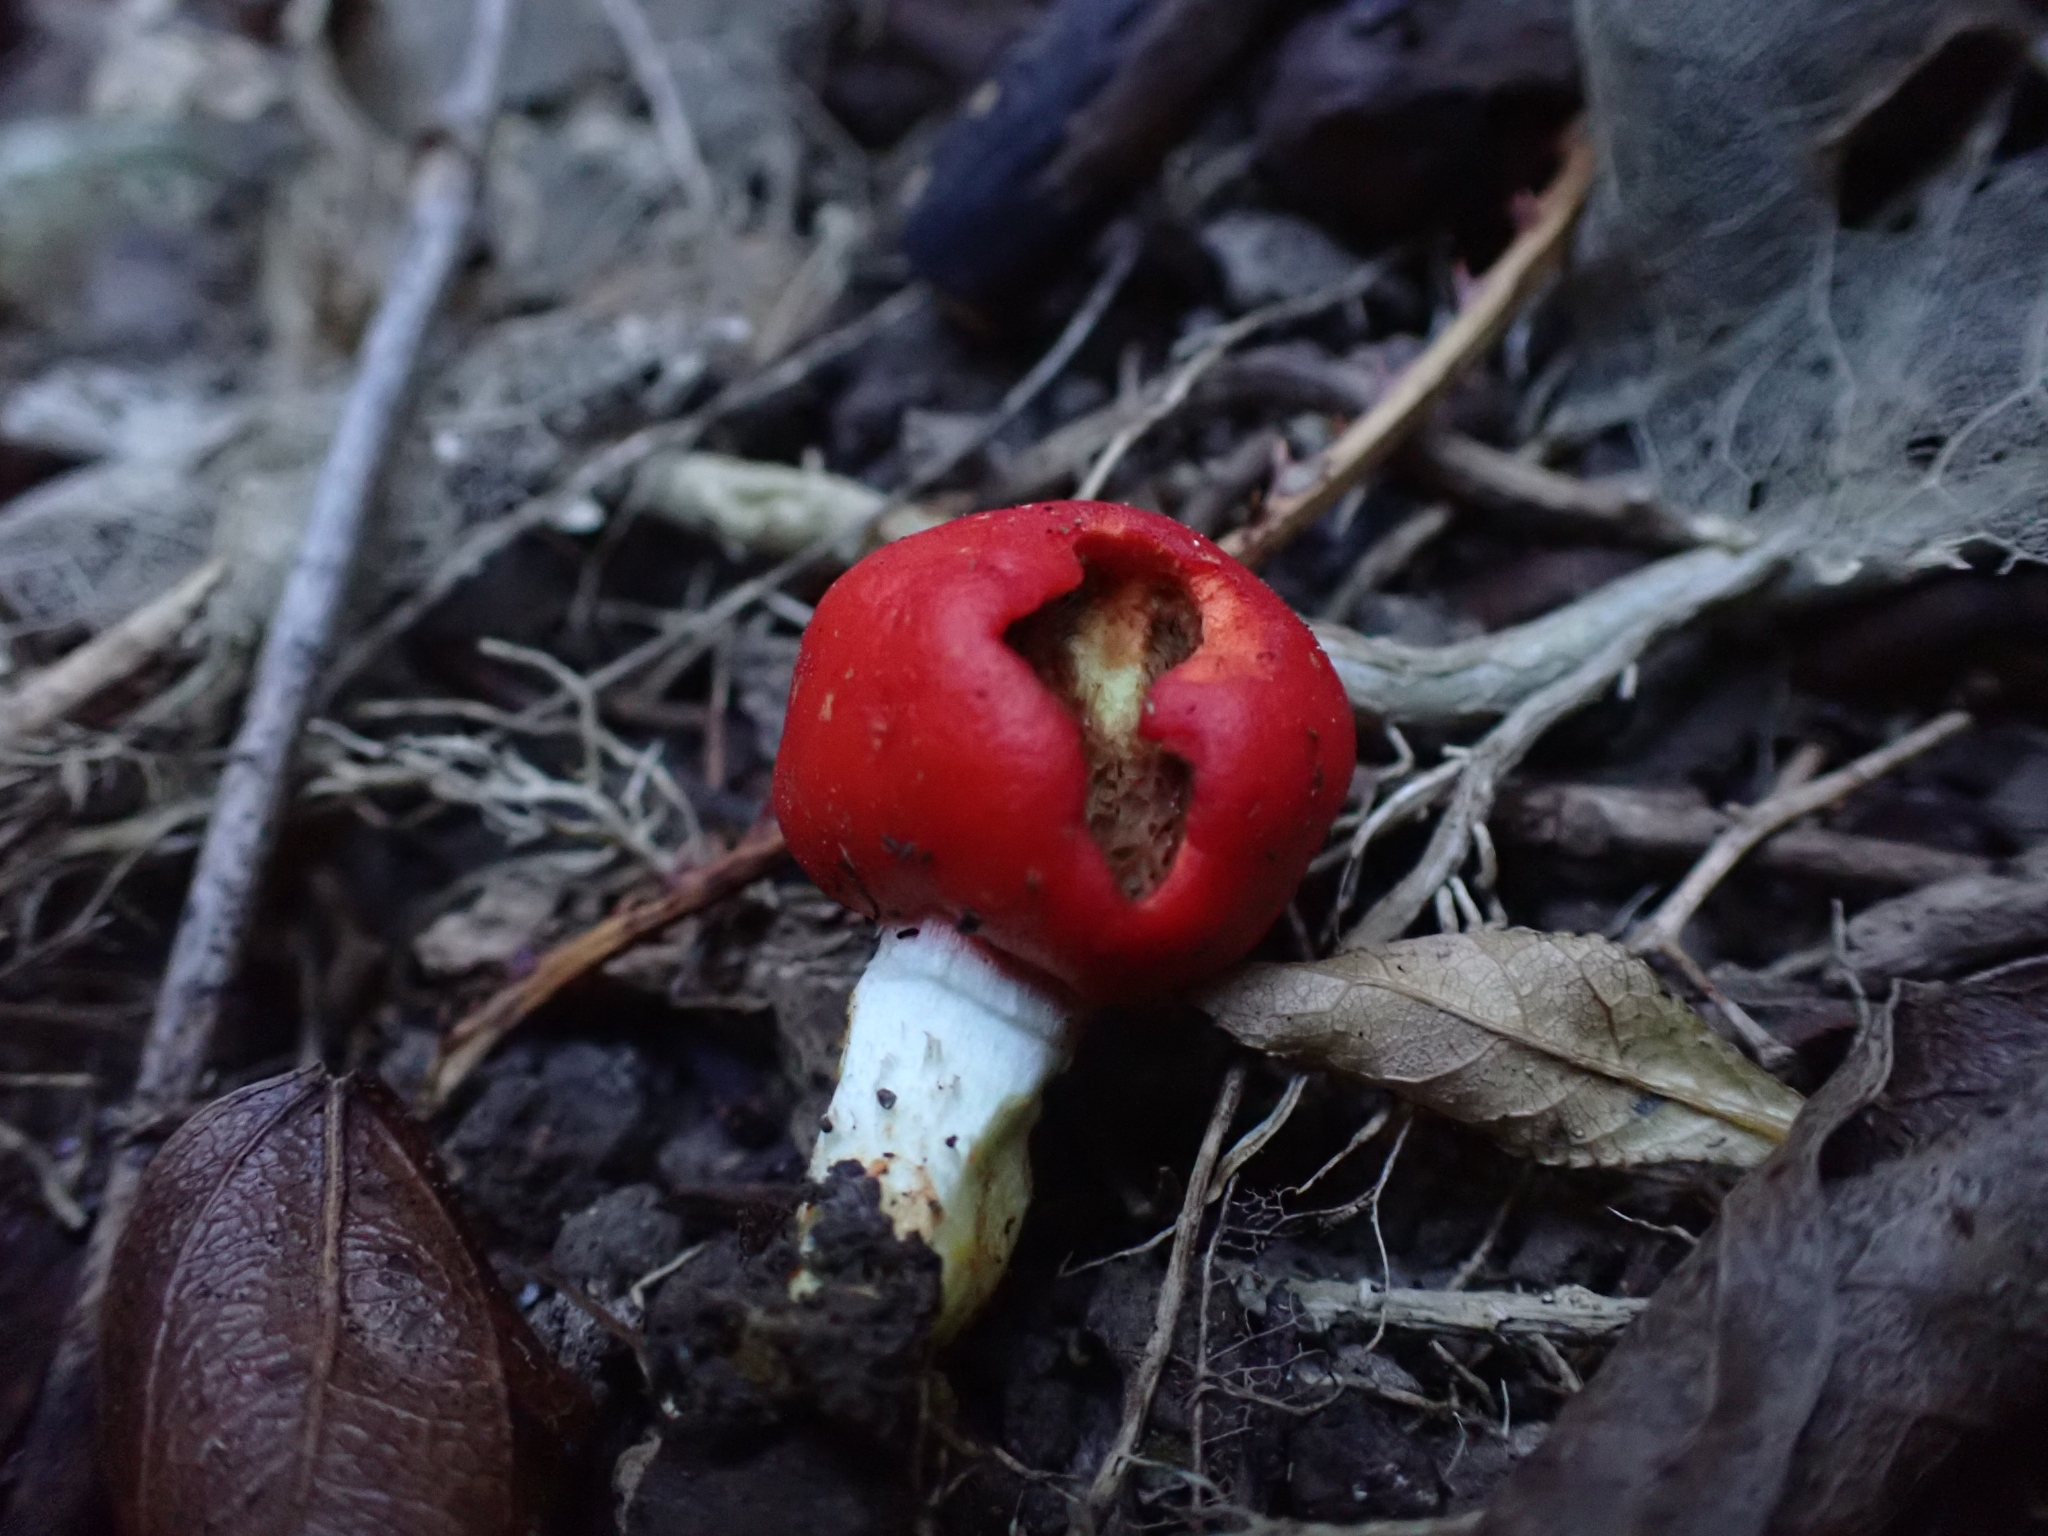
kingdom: Fungi
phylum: Basidiomycota
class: Agaricomycetes
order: Agaricales
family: Strophariaceae
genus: Leratiomyces
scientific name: Leratiomyces erythrocephalus
